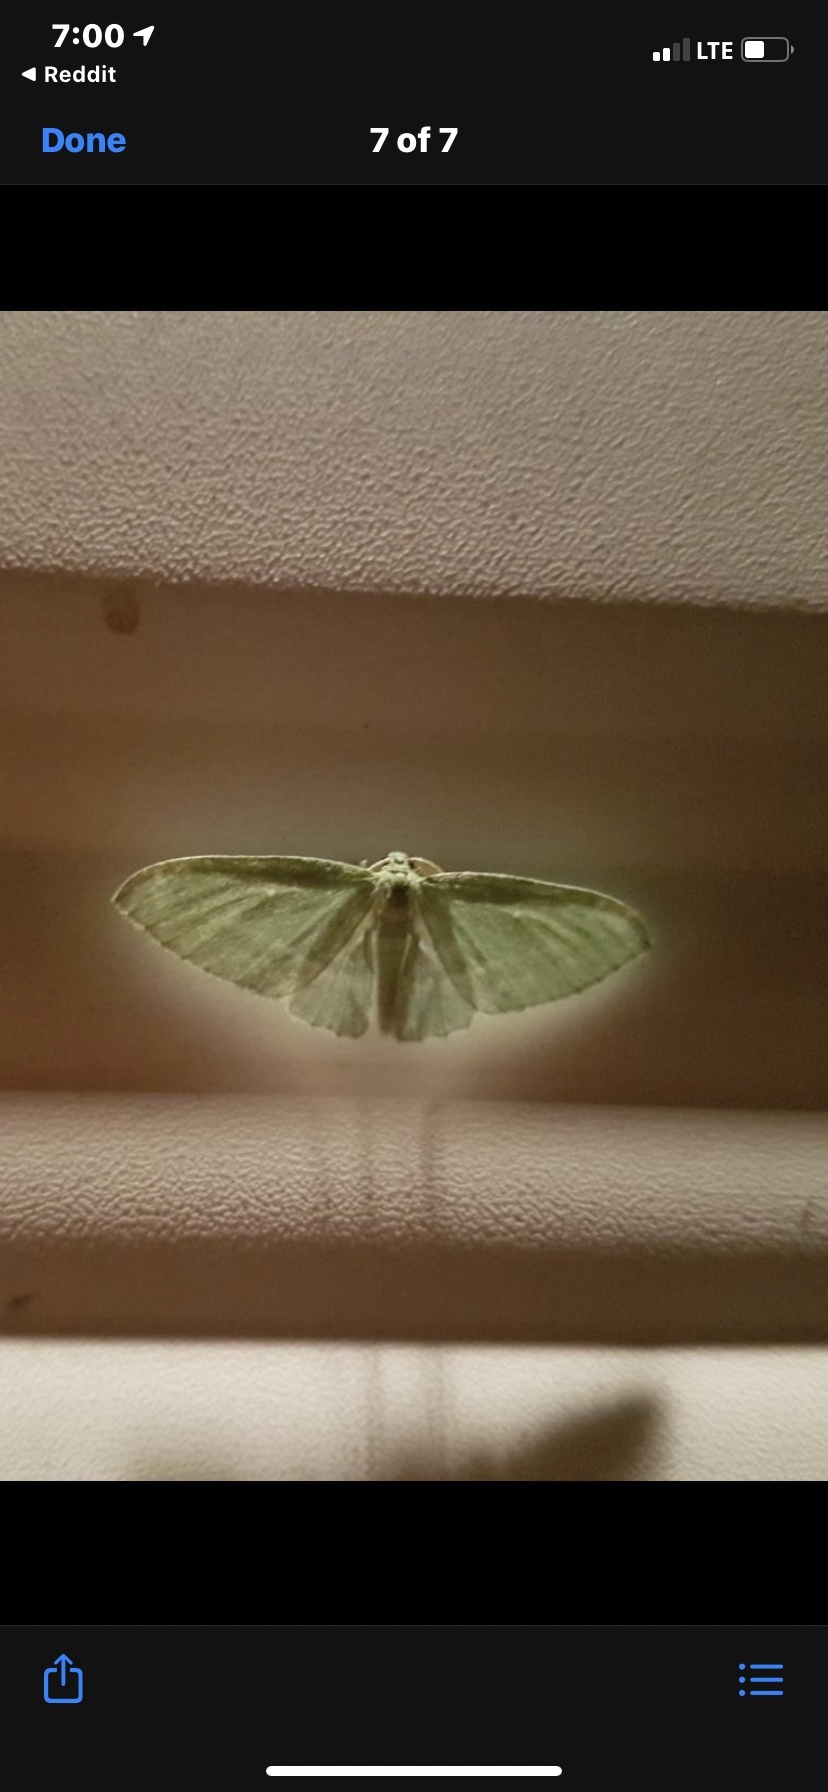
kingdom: Animalia
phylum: Arthropoda
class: Insecta
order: Lepidoptera
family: Geometridae
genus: Dyspteris
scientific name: Dyspteris abortivaria
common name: Bad-wing
